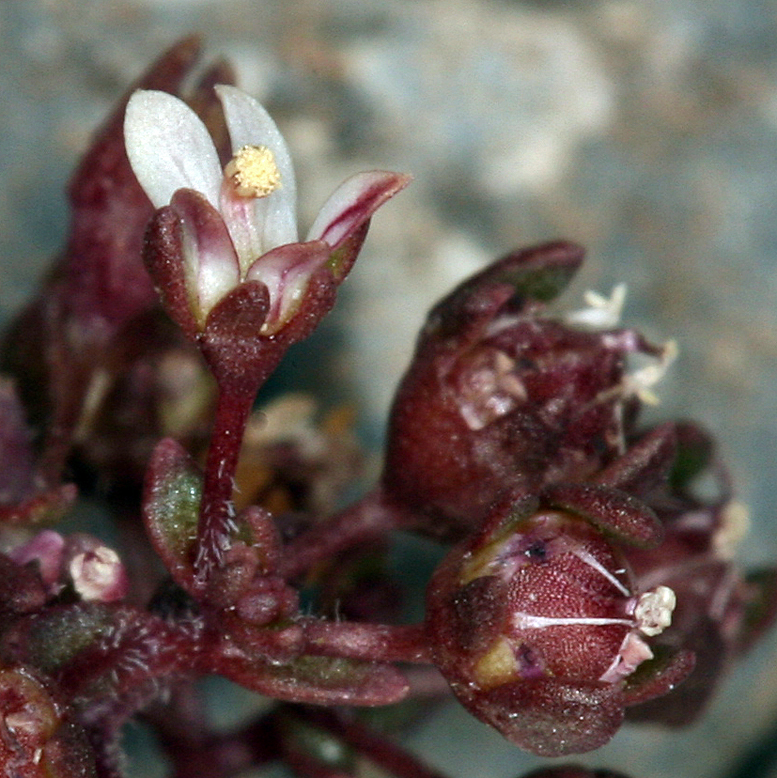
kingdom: Plantae
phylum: Tracheophyta
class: Magnoliopsida
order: Asterales
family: Campanulaceae
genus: Nemacladus
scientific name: Nemacladus rigidus
